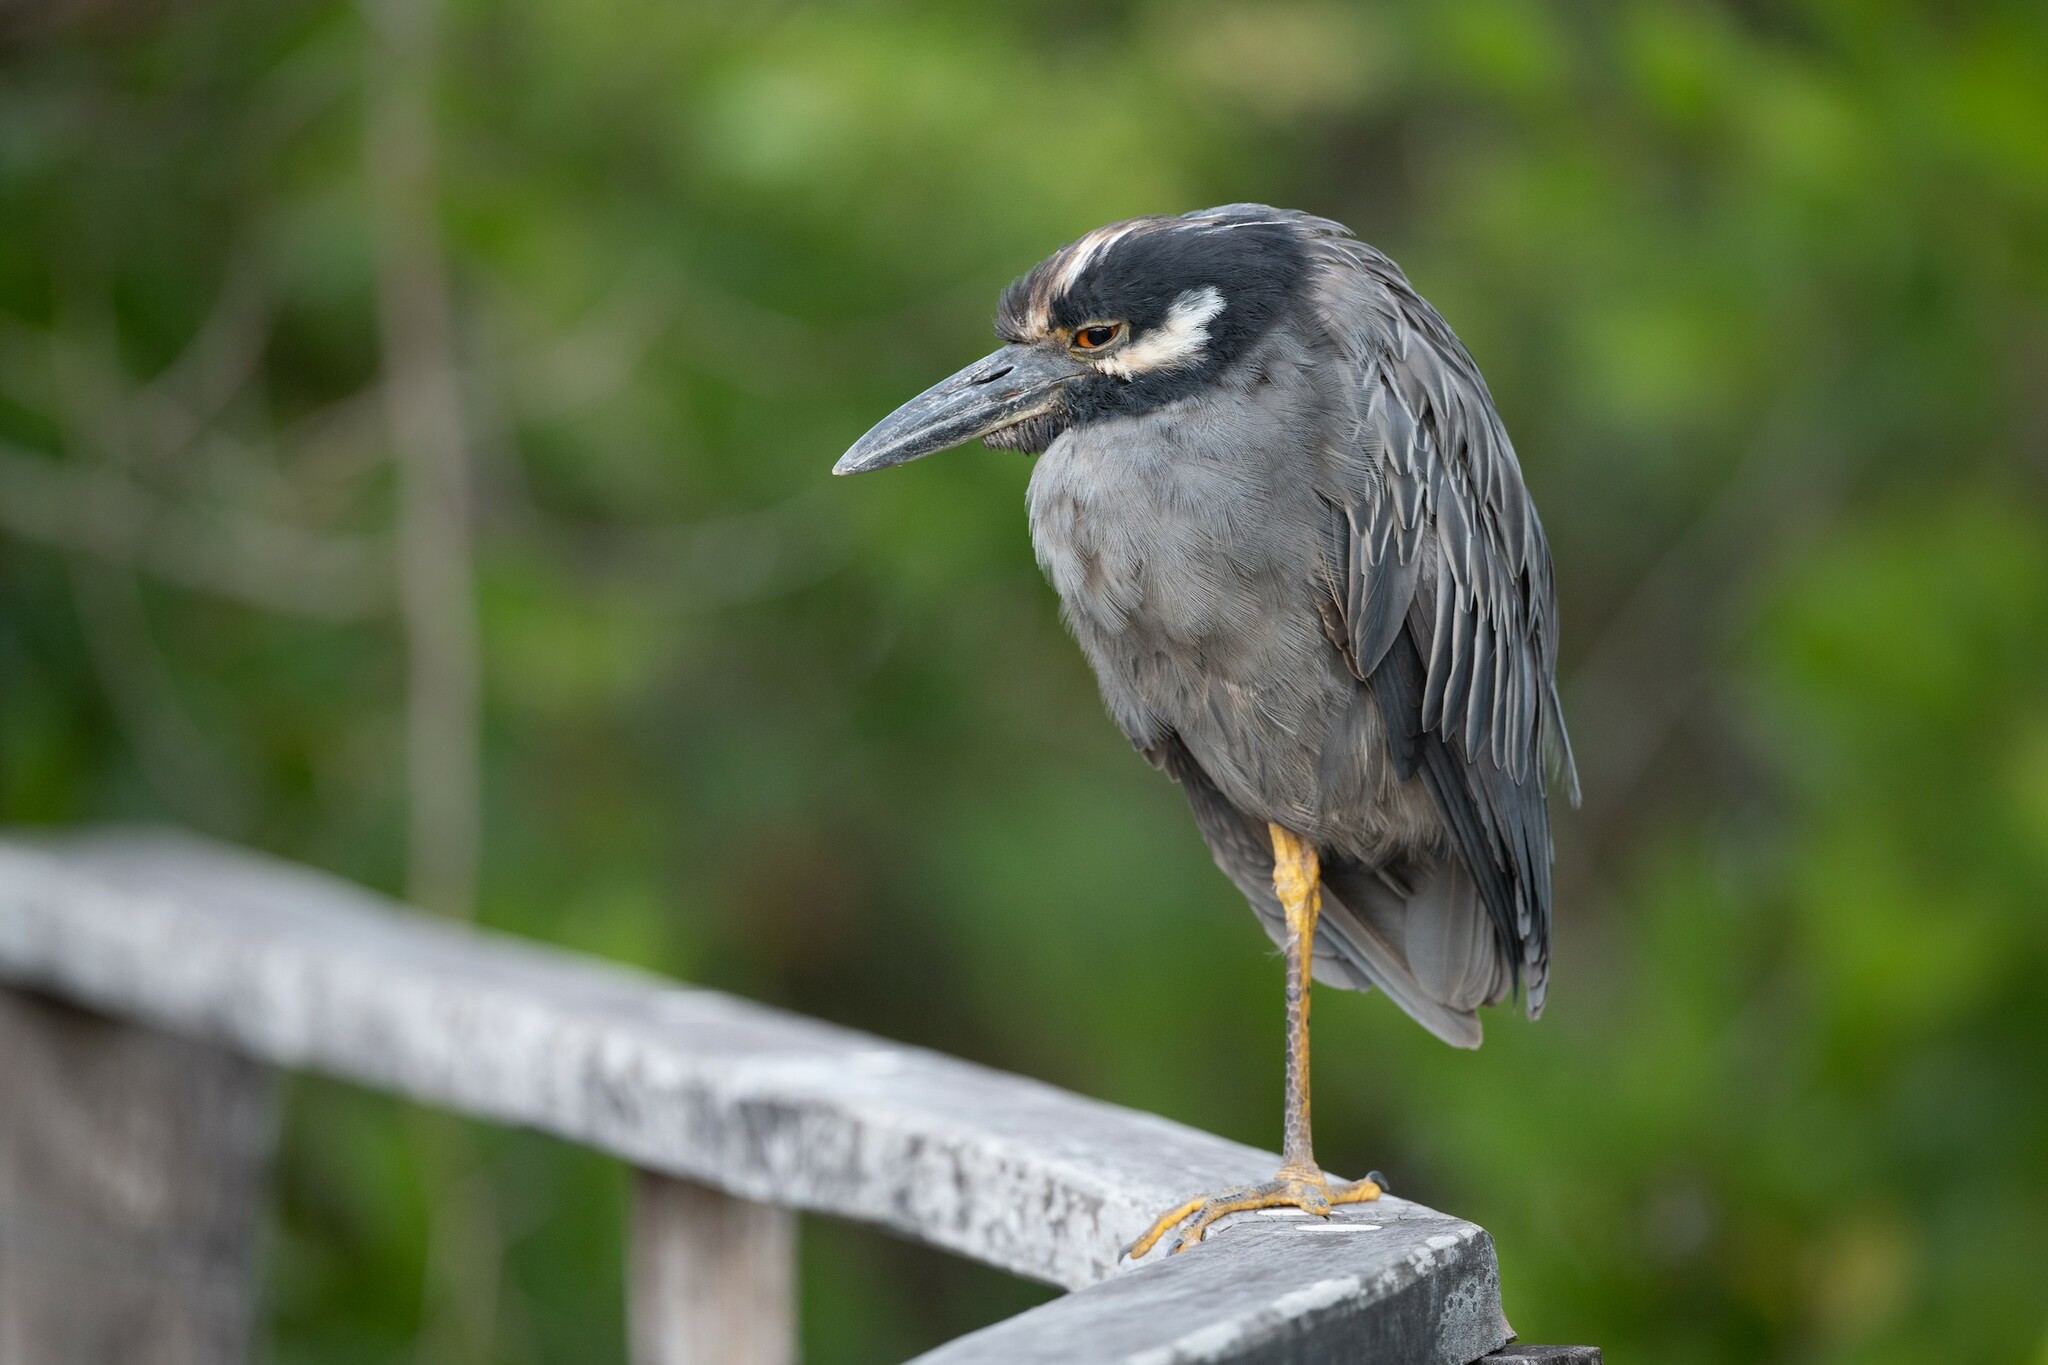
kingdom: Animalia
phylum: Chordata
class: Aves
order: Pelecaniformes
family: Ardeidae
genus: Nyctanassa
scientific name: Nyctanassa violacea
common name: Yellow-crowned night heron
